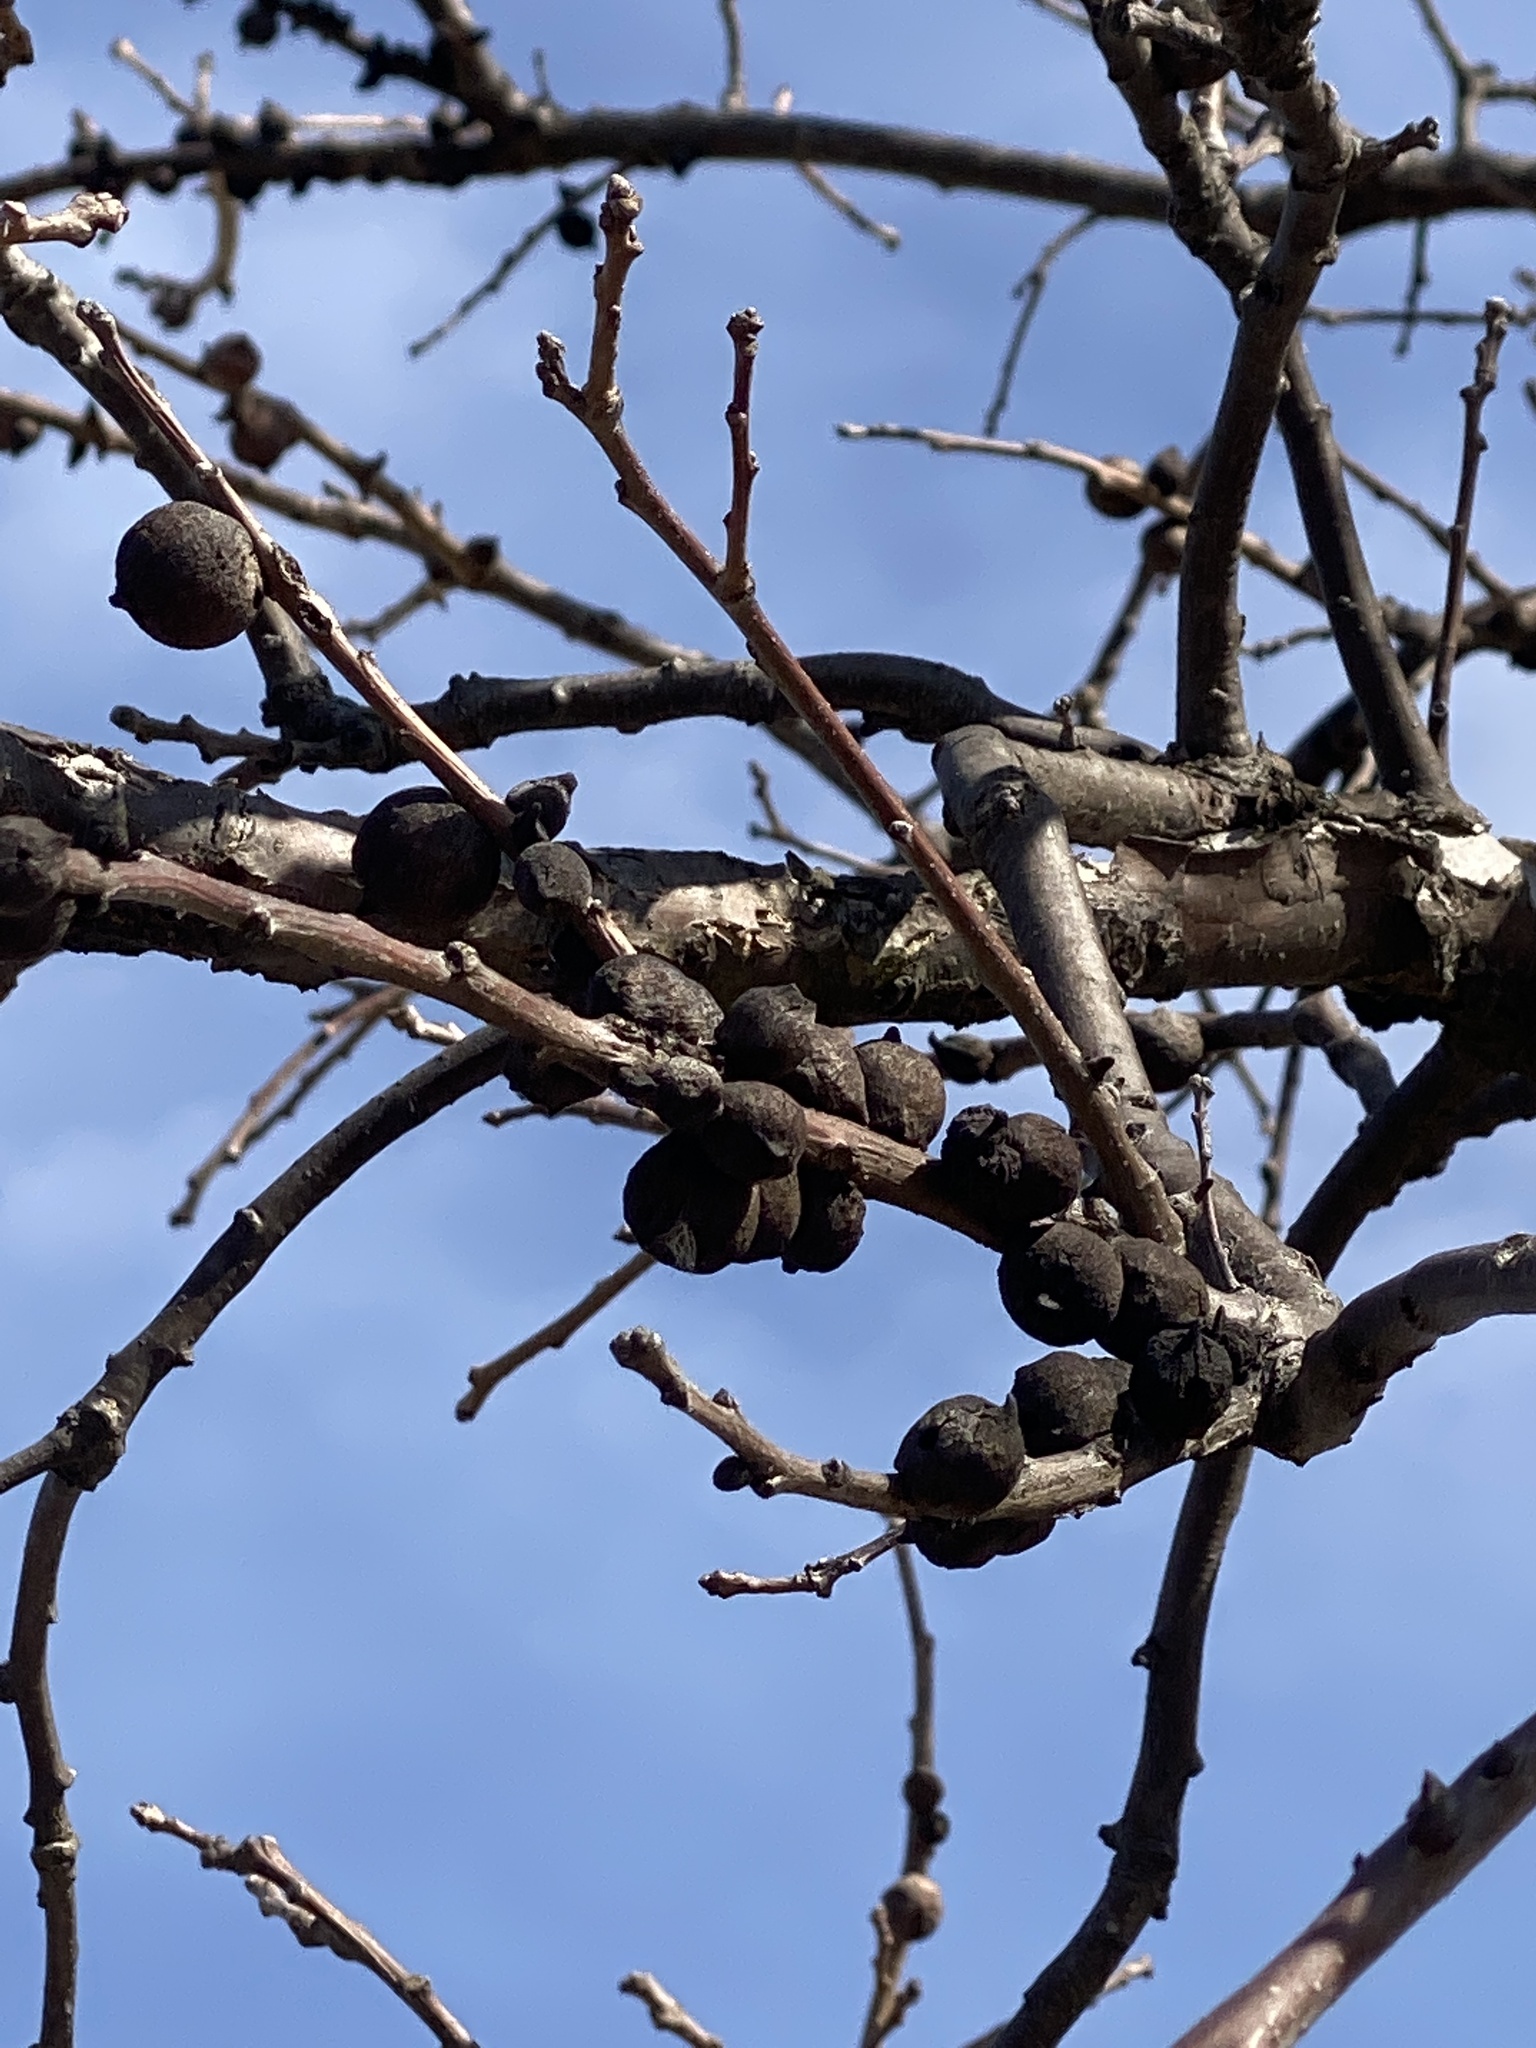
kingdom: Animalia
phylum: Arthropoda
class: Insecta
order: Hymenoptera
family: Cynipidae
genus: Disholcaspis
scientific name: Disholcaspis
